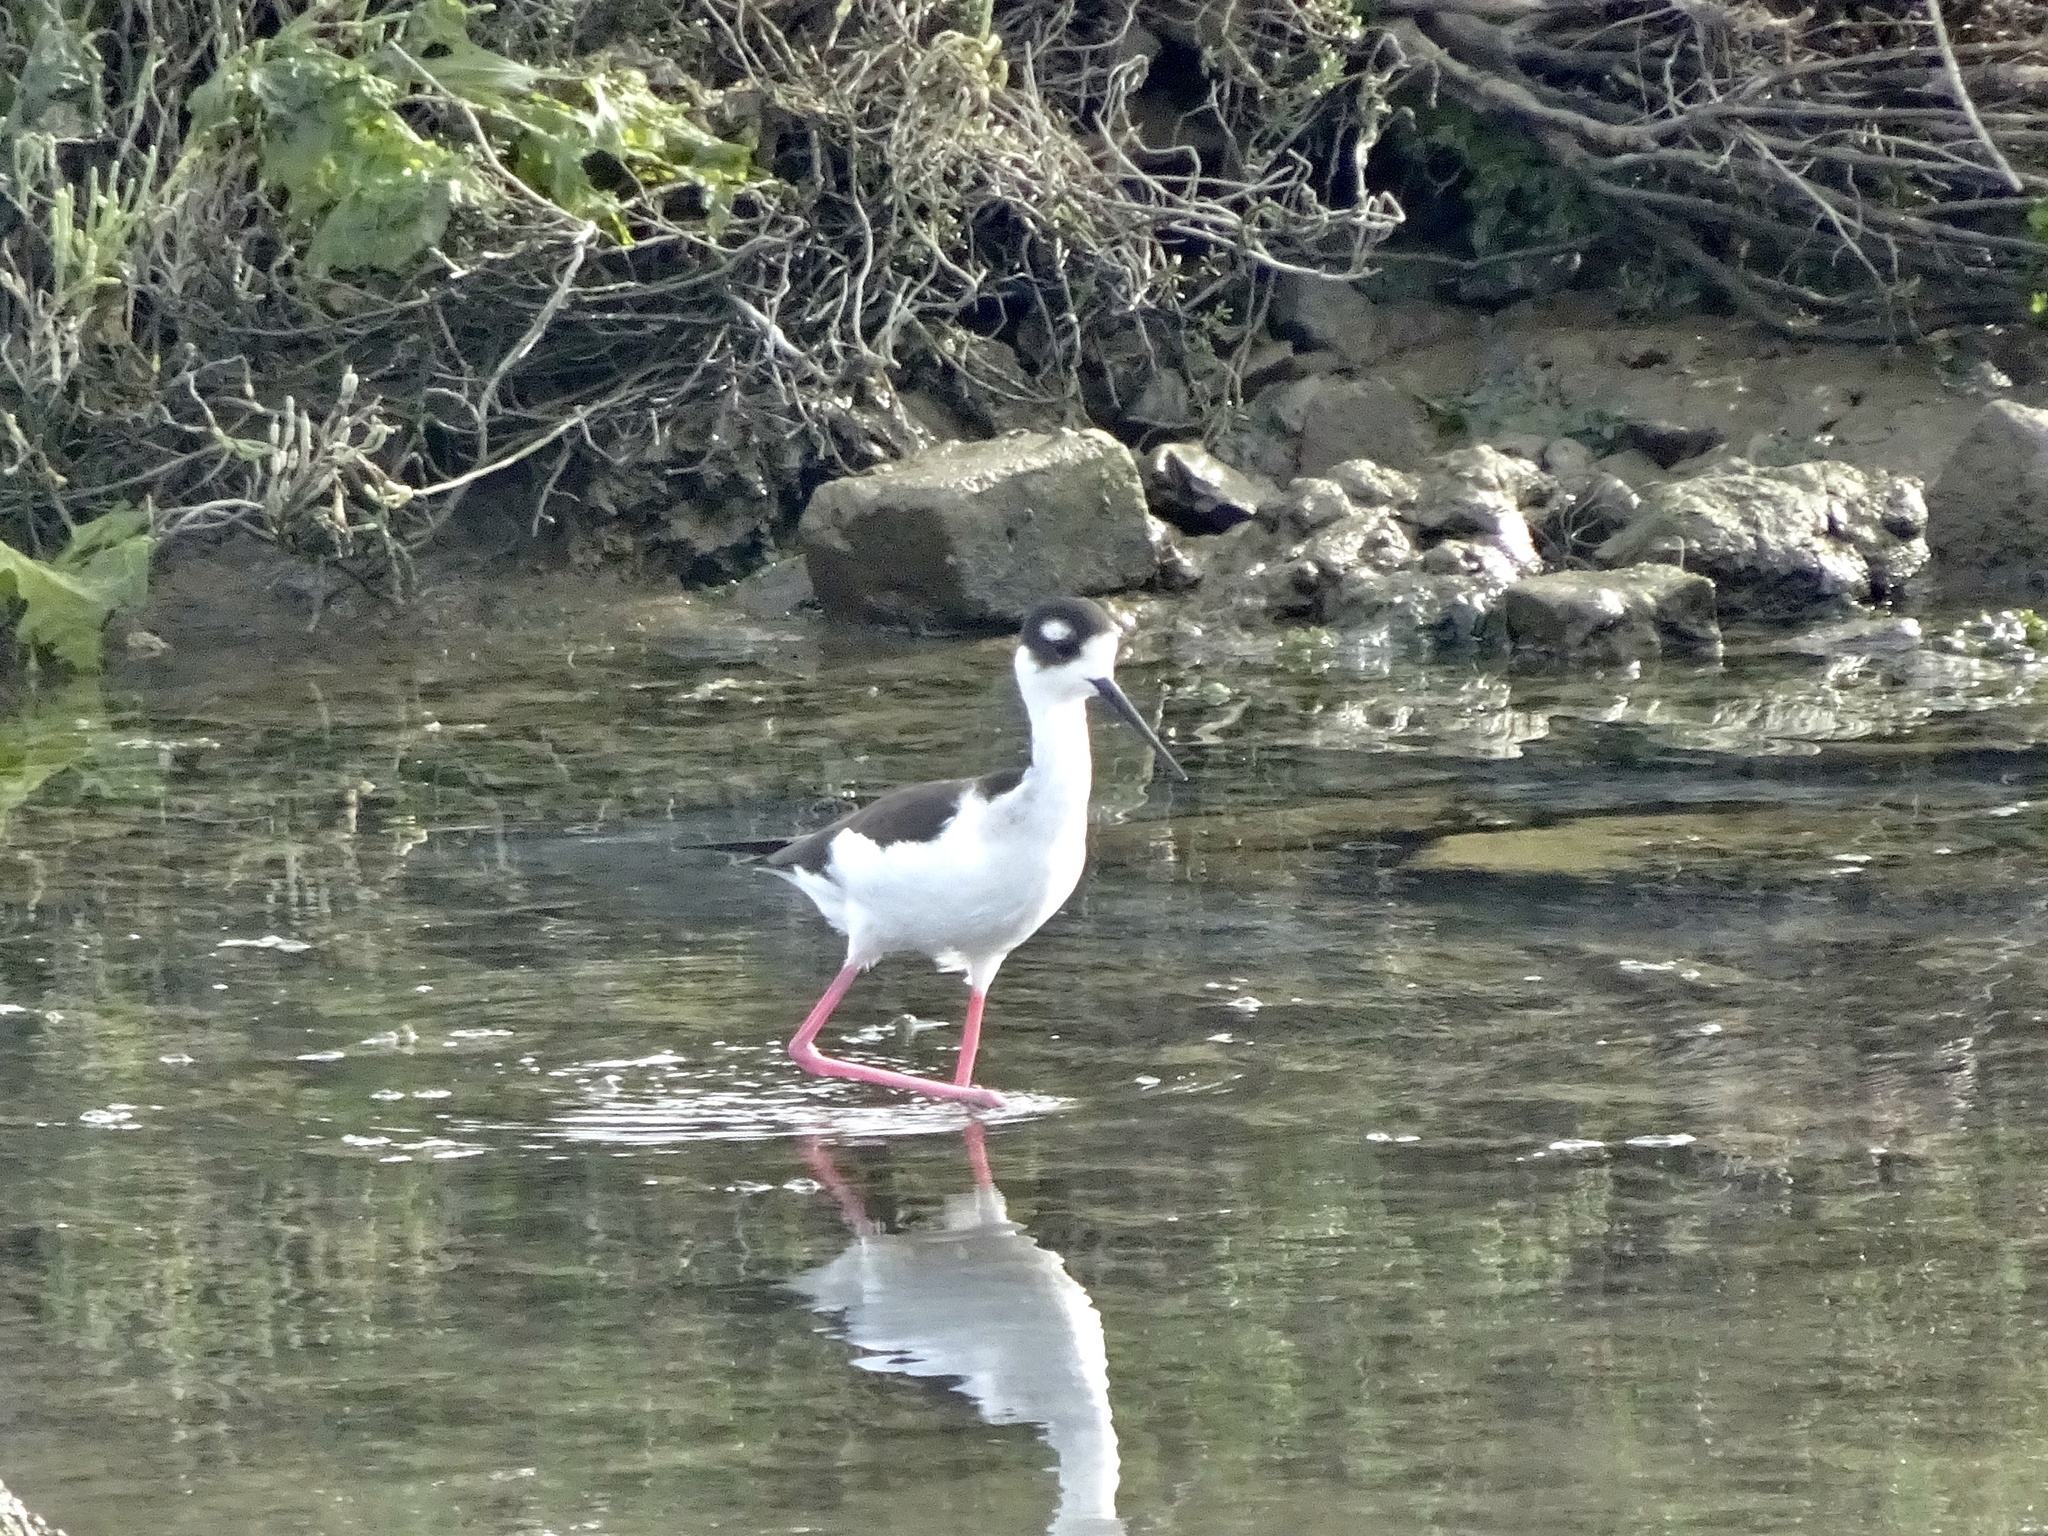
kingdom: Animalia
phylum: Chordata
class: Aves
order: Charadriiformes
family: Recurvirostridae
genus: Himantopus
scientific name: Himantopus mexicanus
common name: Black-necked stilt
